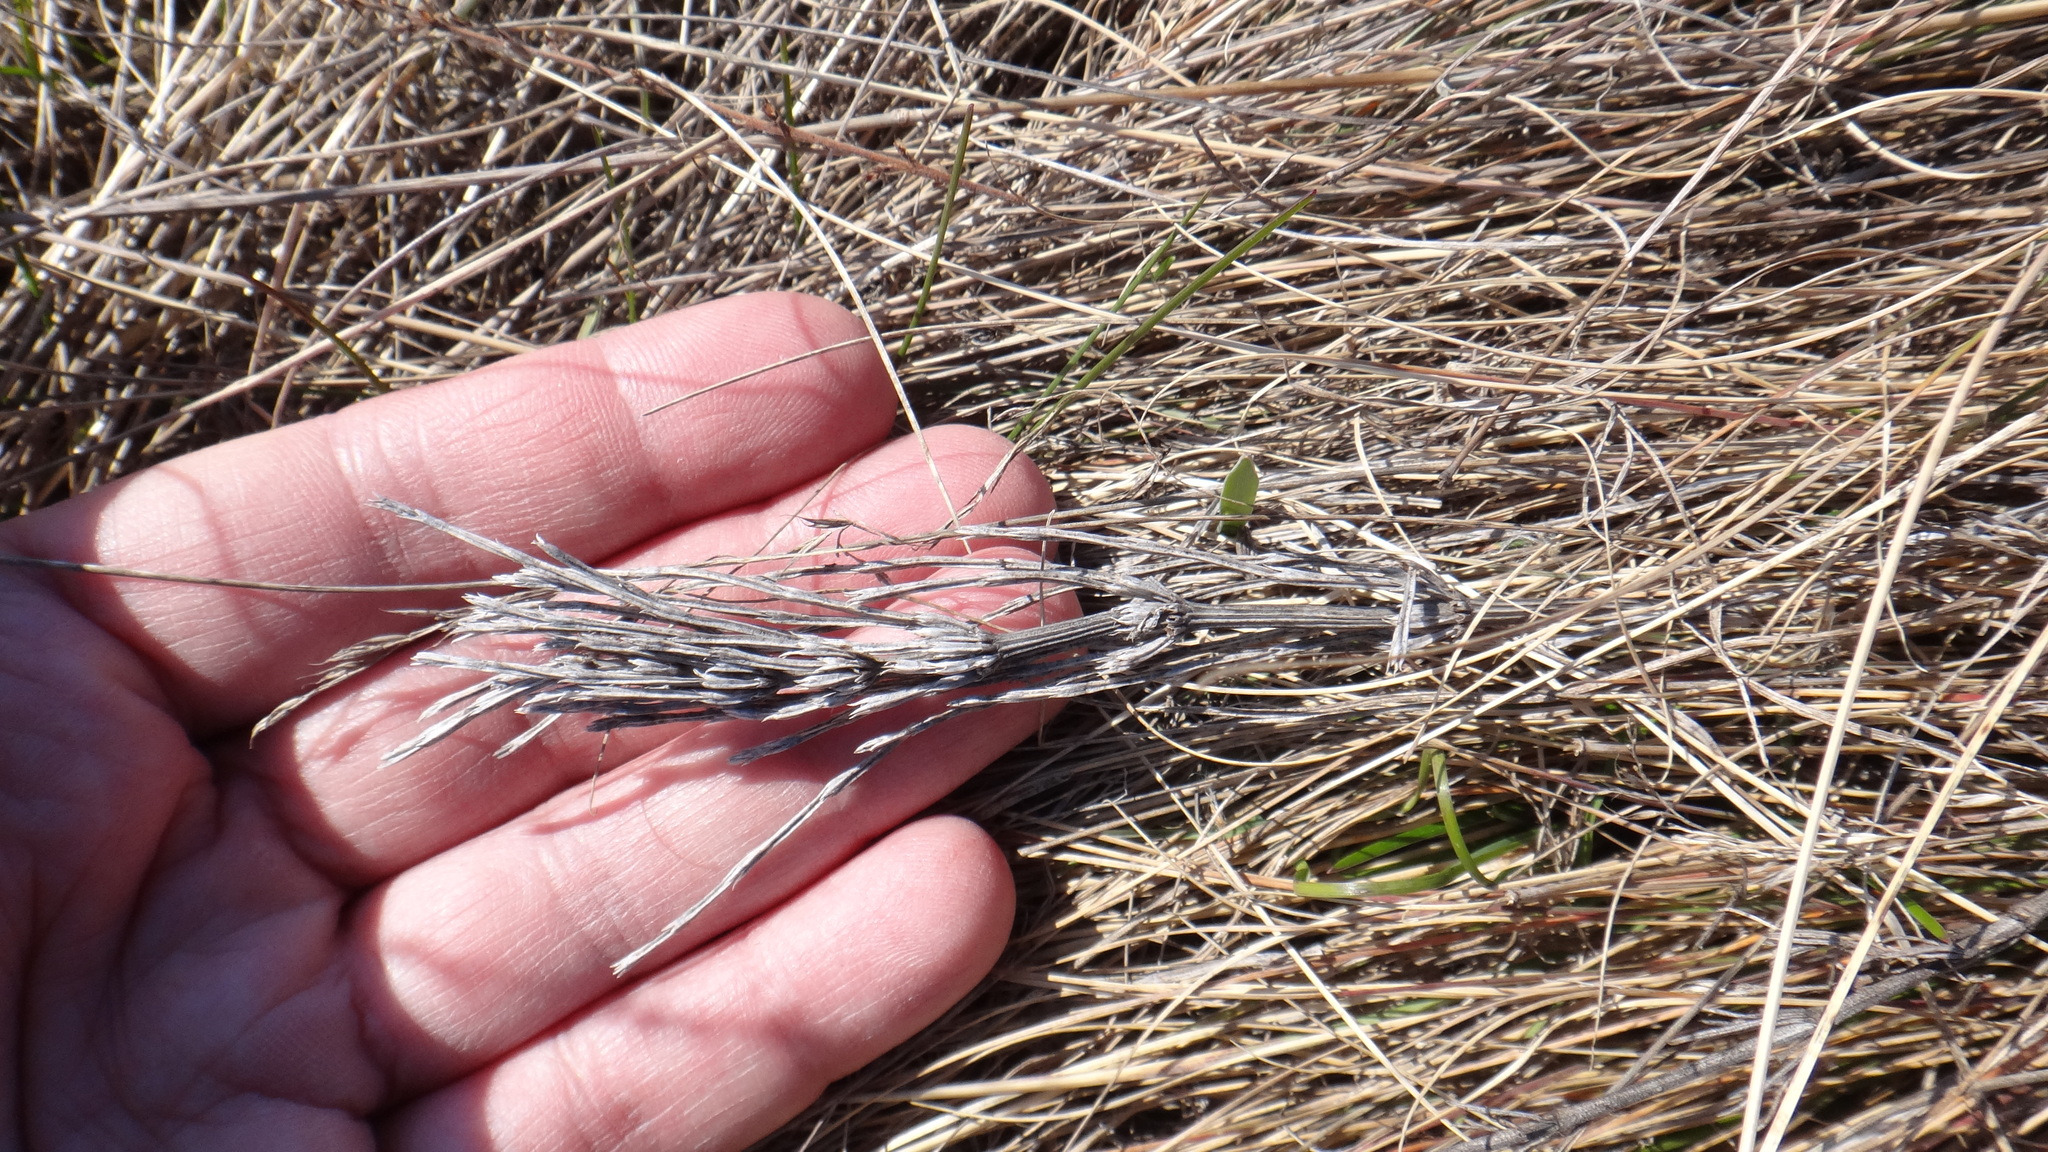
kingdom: Plantae
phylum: Tracheophyta
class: Polypodiopsida
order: Equisetales
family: Equisetaceae
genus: Equisetum
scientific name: Equisetum arvense
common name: Field horsetail
